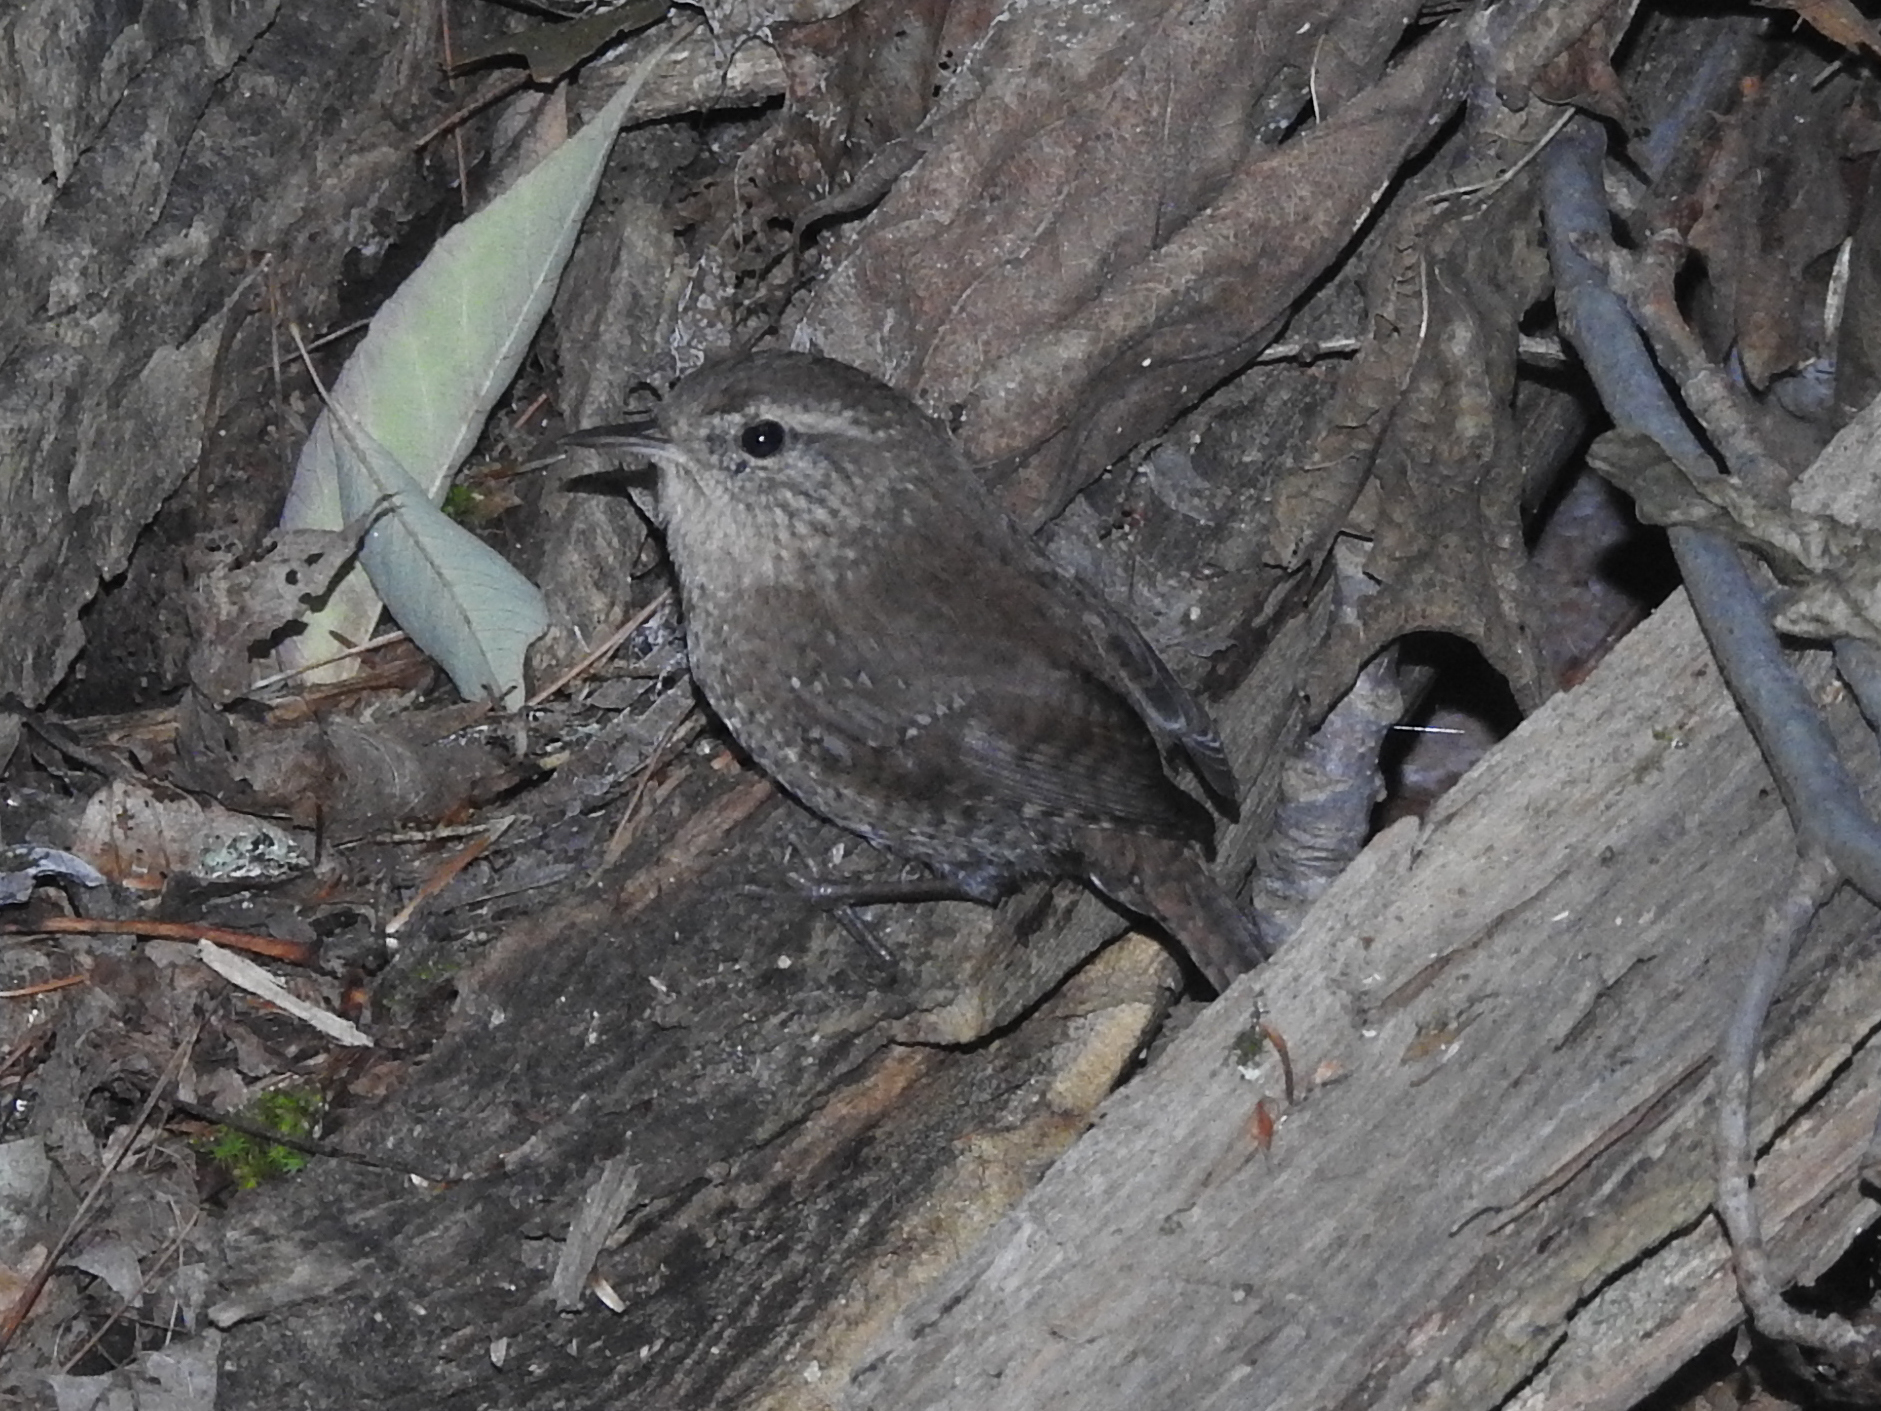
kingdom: Animalia
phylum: Chordata
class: Aves
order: Passeriformes
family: Troglodytidae
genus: Troglodytes
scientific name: Troglodytes hiemalis
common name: Winter wren
